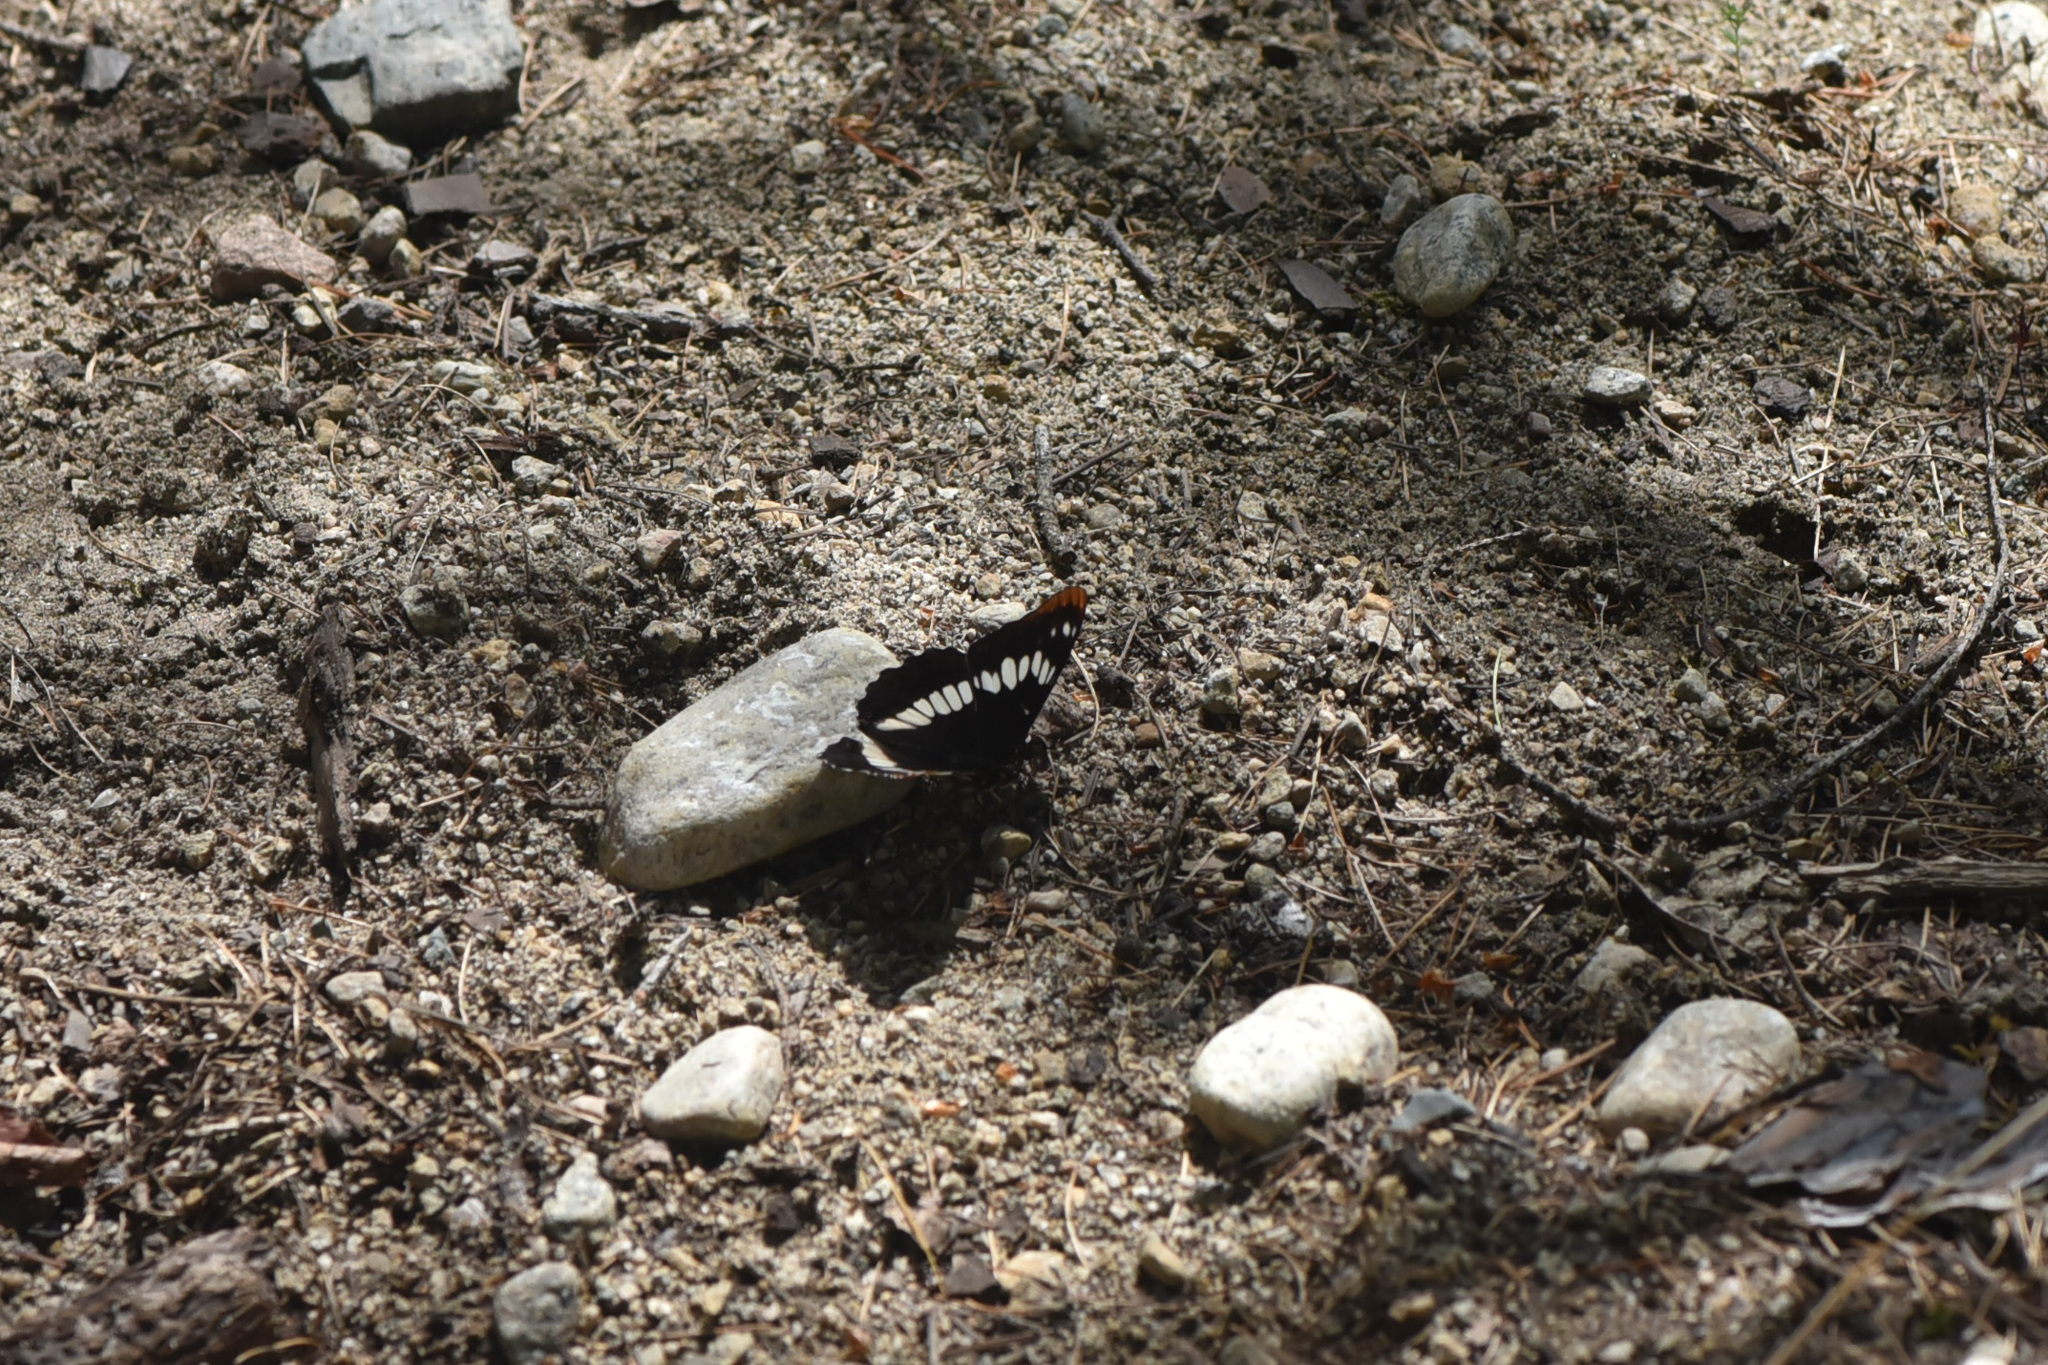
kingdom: Animalia
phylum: Arthropoda
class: Insecta
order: Lepidoptera
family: Nymphalidae
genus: Limenitis
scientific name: Limenitis lorquini
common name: Lorquin's admiral
